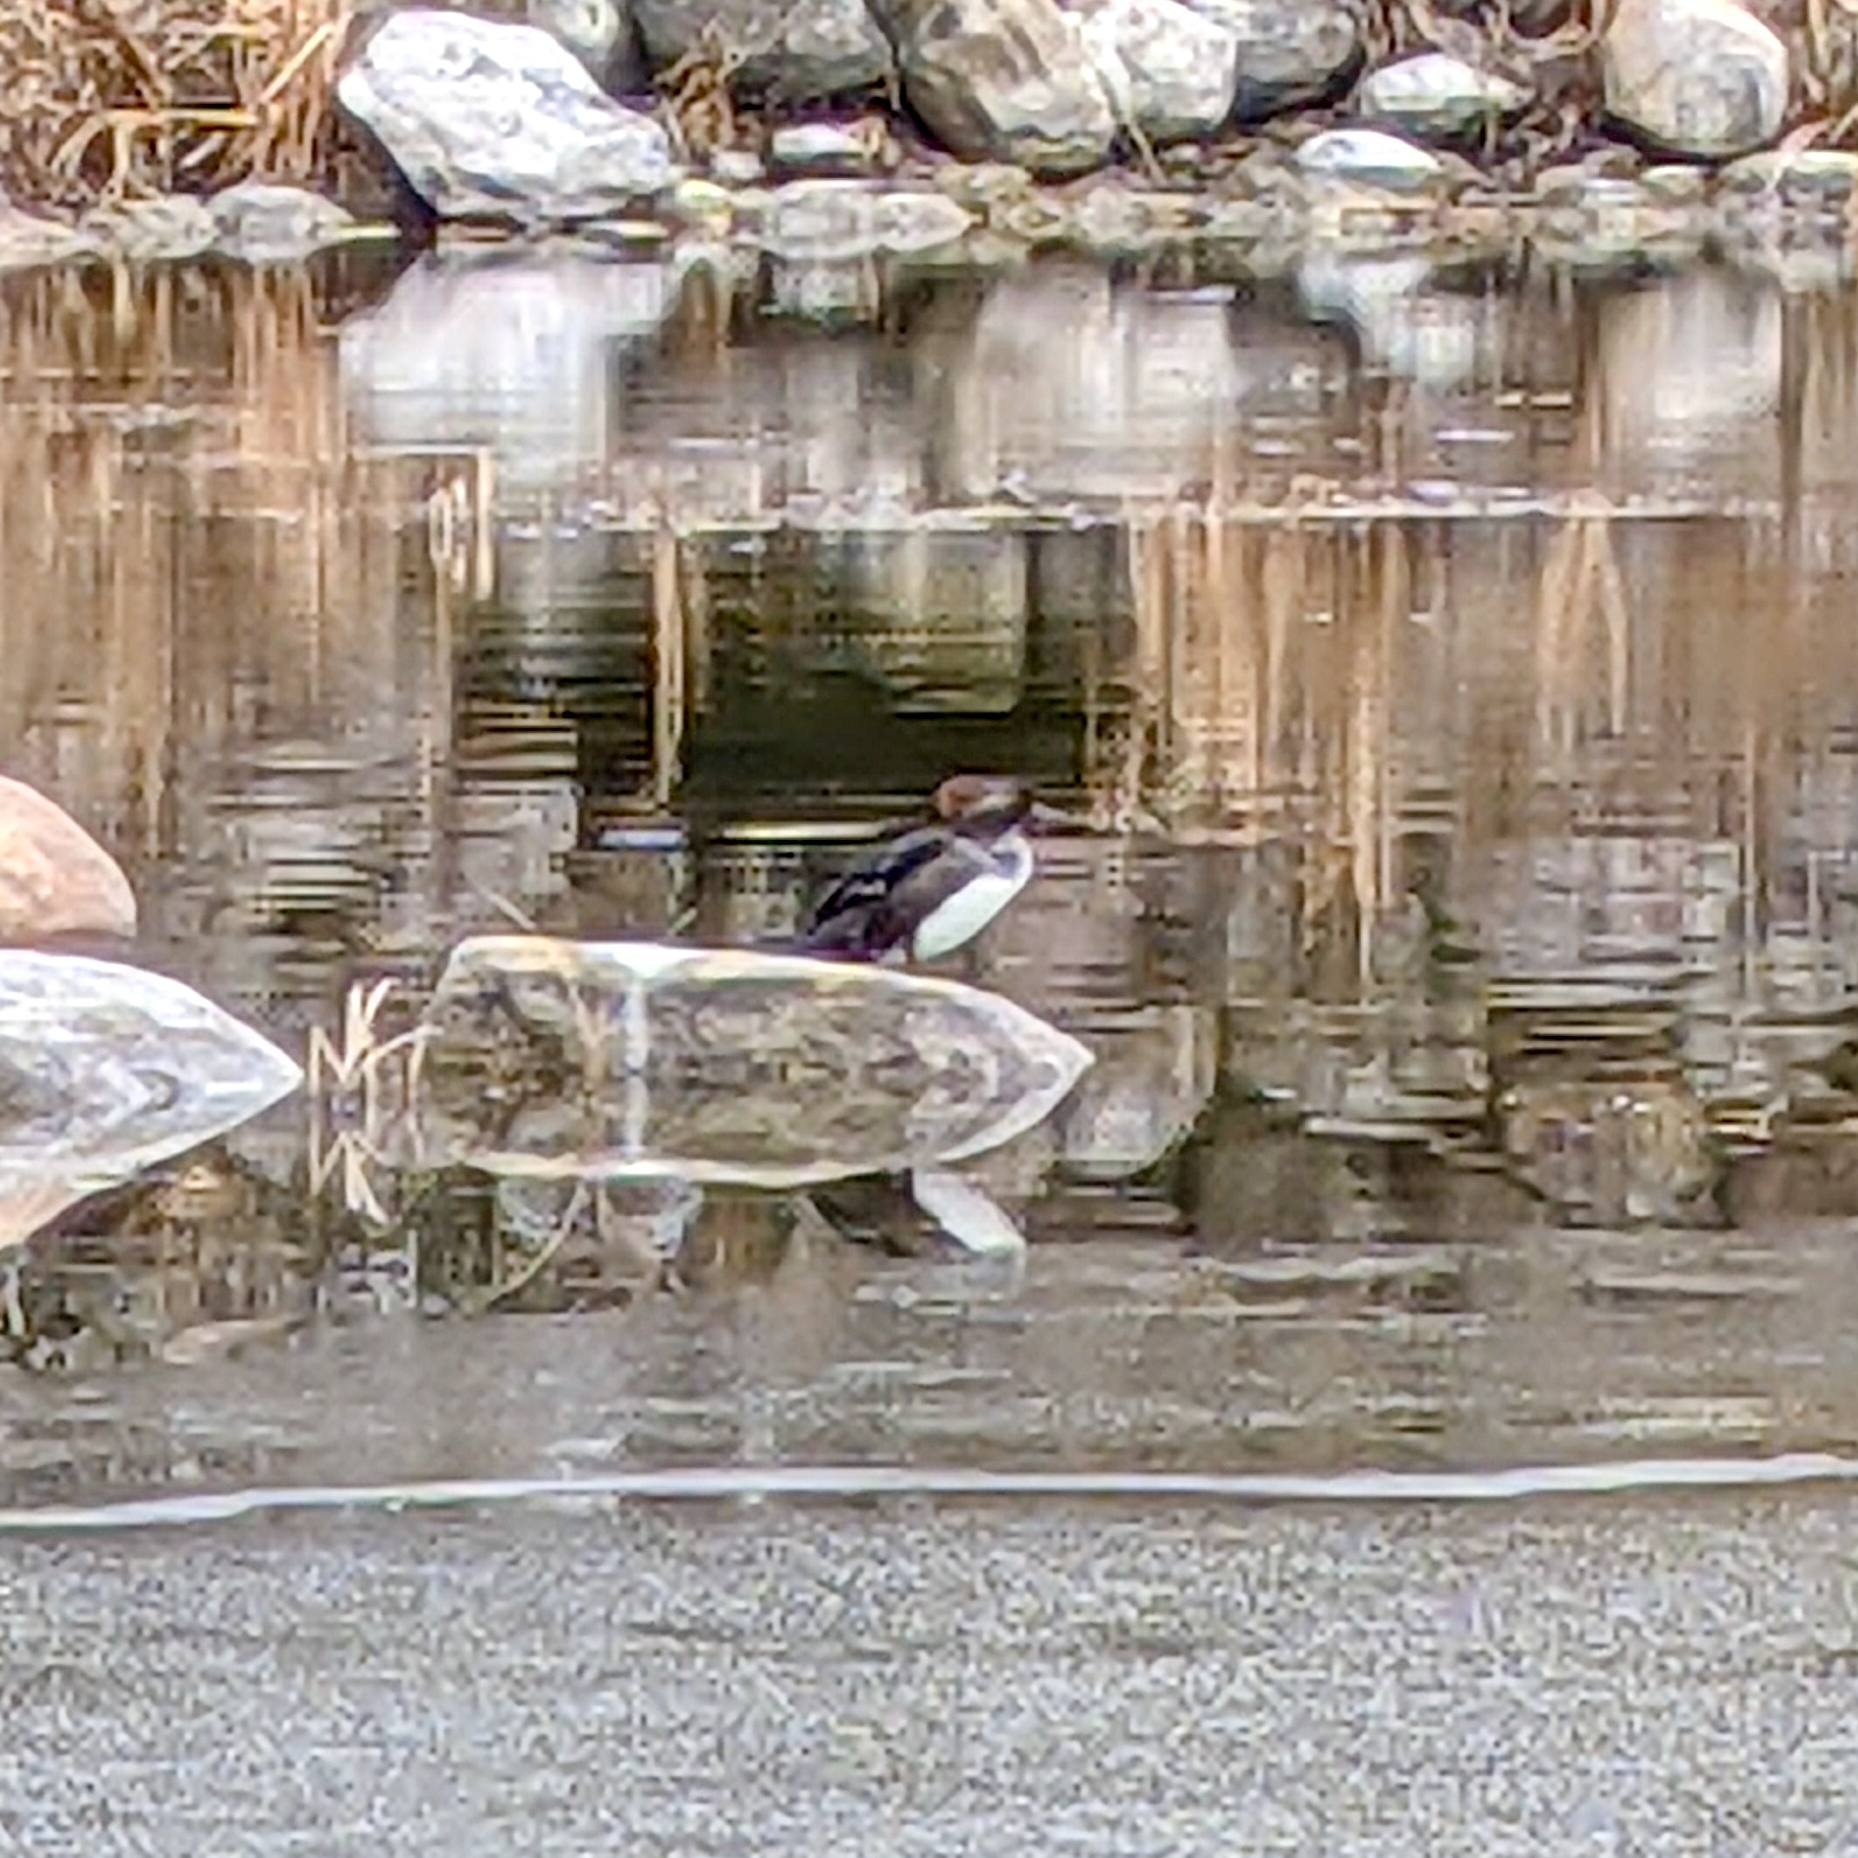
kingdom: Animalia
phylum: Chordata
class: Aves
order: Anseriformes
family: Anatidae
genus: Lophodytes
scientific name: Lophodytes cucullatus
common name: Hooded merganser
